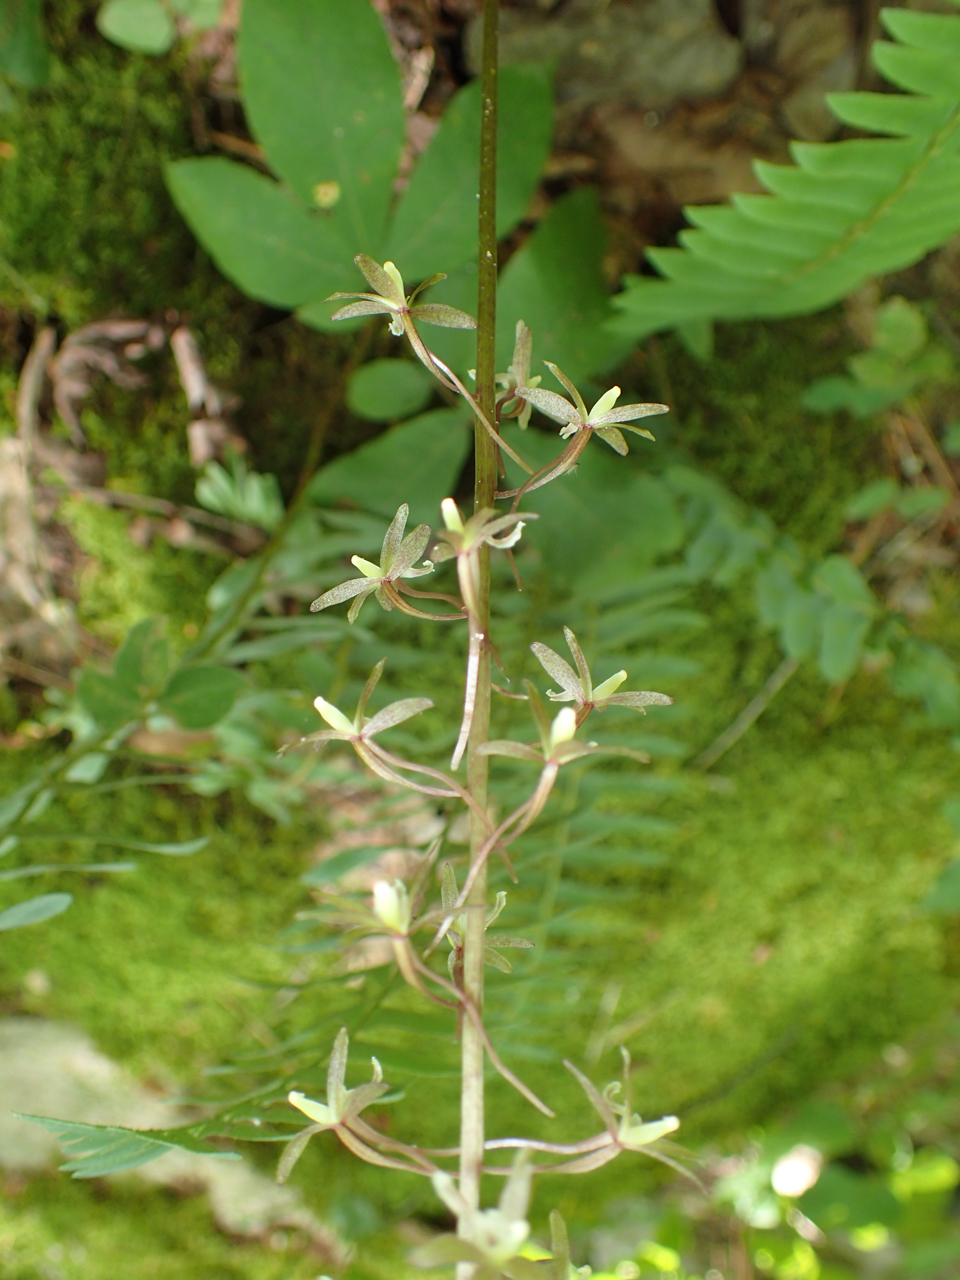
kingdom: Plantae
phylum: Tracheophyta
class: Liliopsida
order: Asparagales
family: Orchidaceae
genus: Tipularia
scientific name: Tipularia discolor
